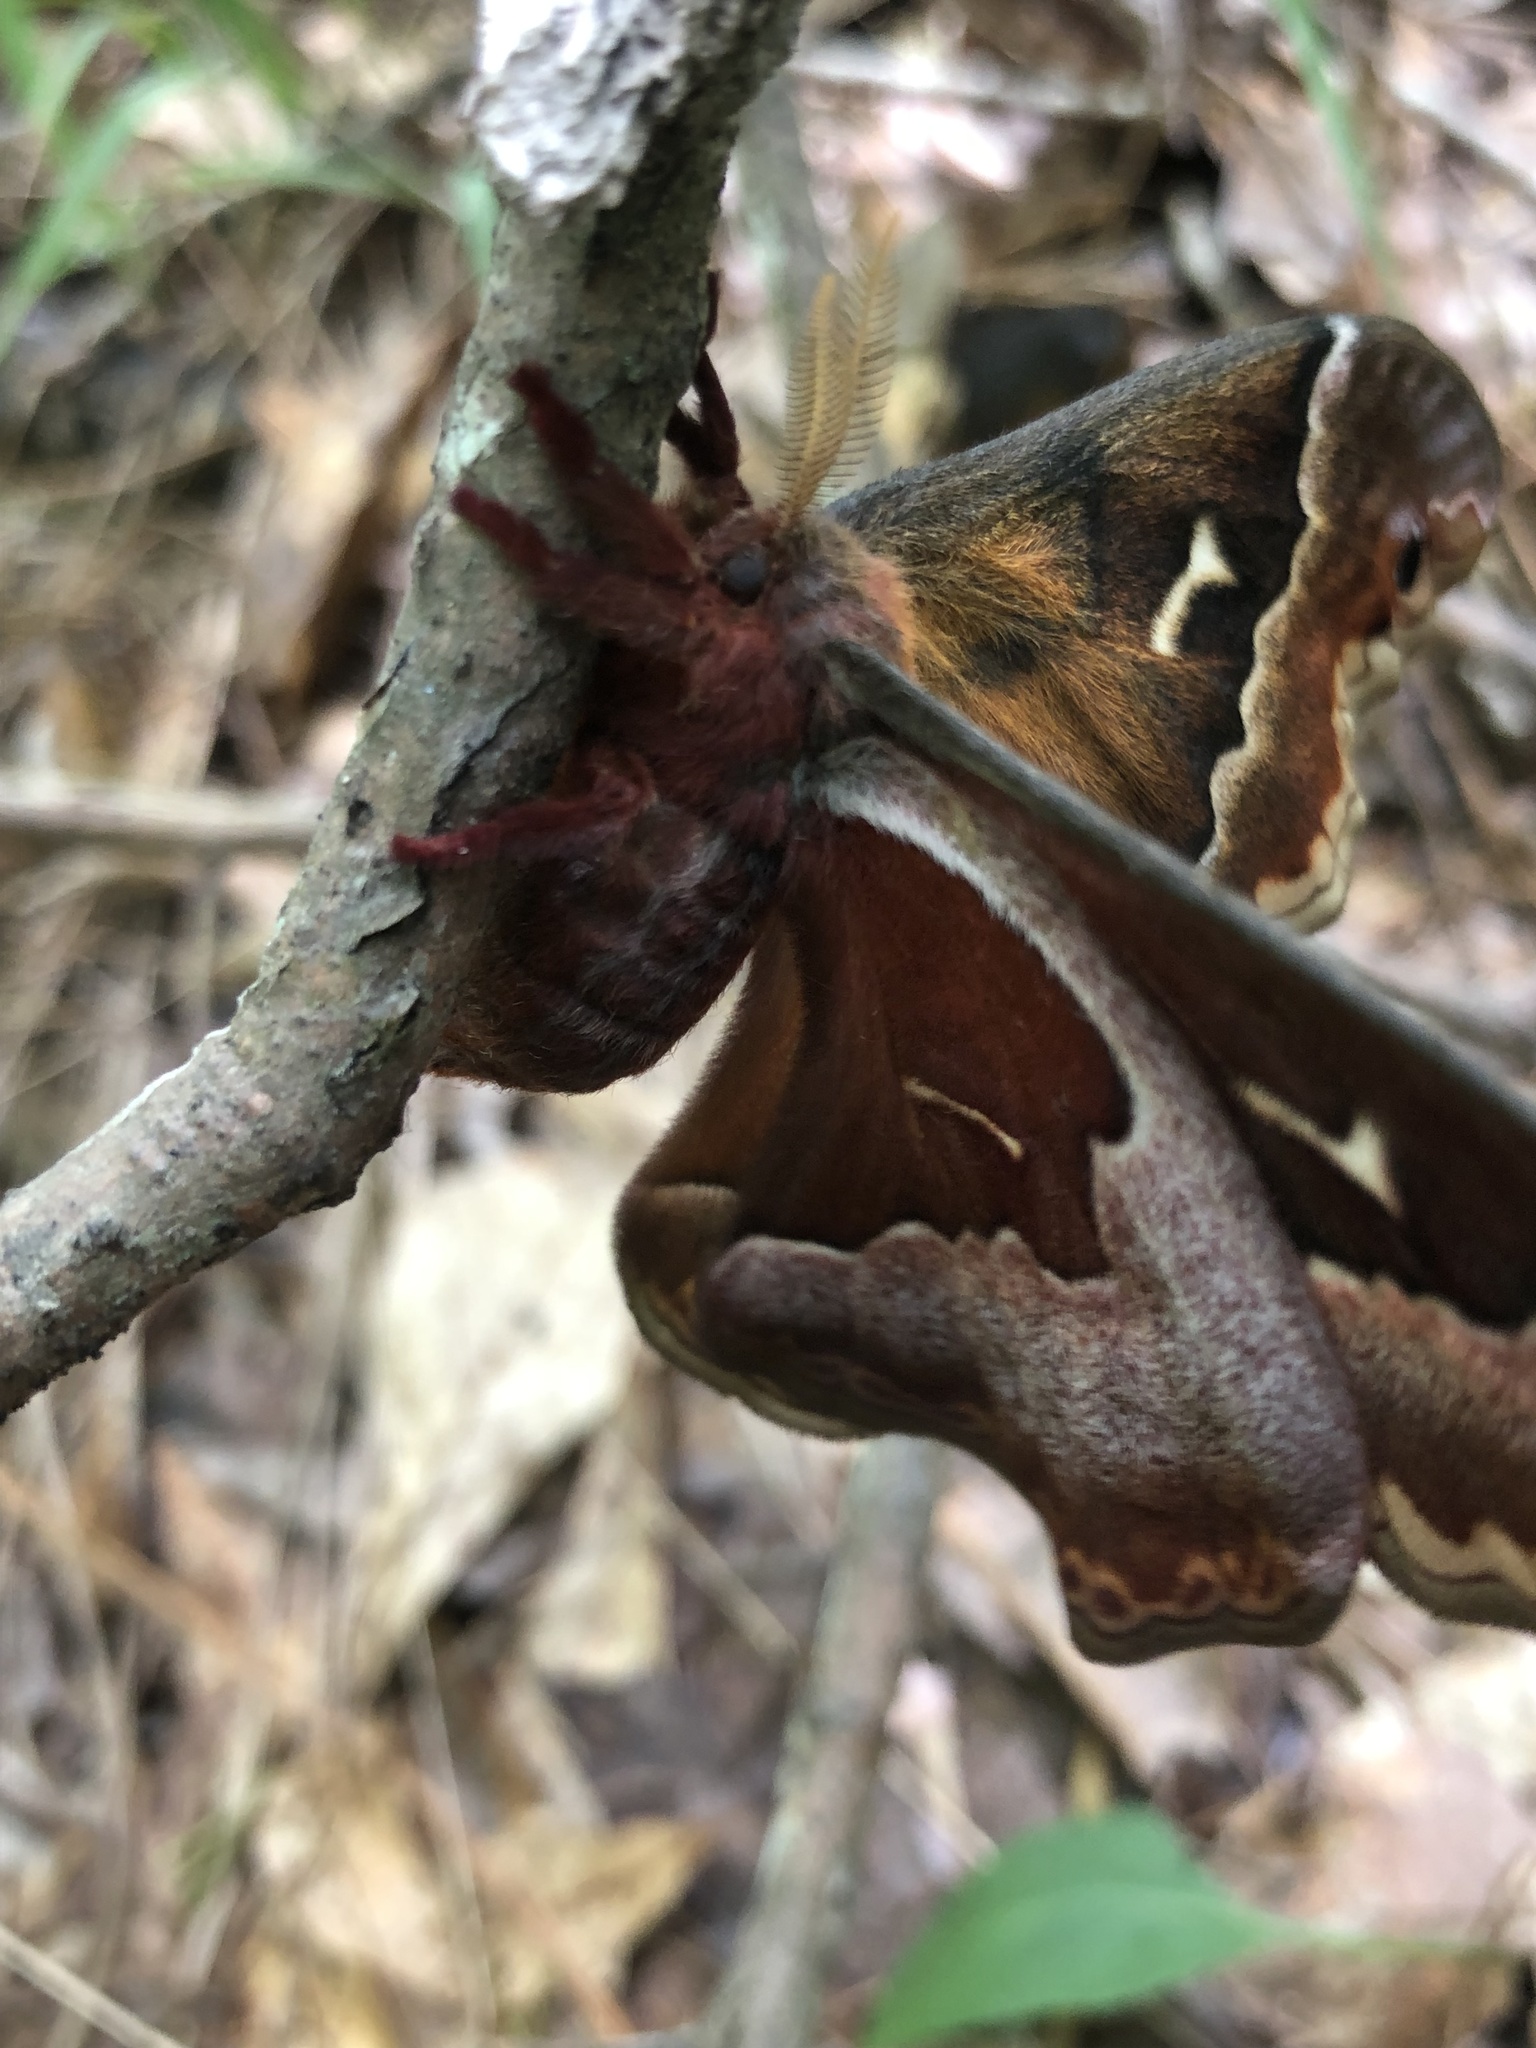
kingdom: Animalia
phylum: Arthropoda
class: Insecta
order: Lepidoptera
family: Saturniidae
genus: Callosamia
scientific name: Callosamia angulifera
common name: Tulip tree silkmoth
